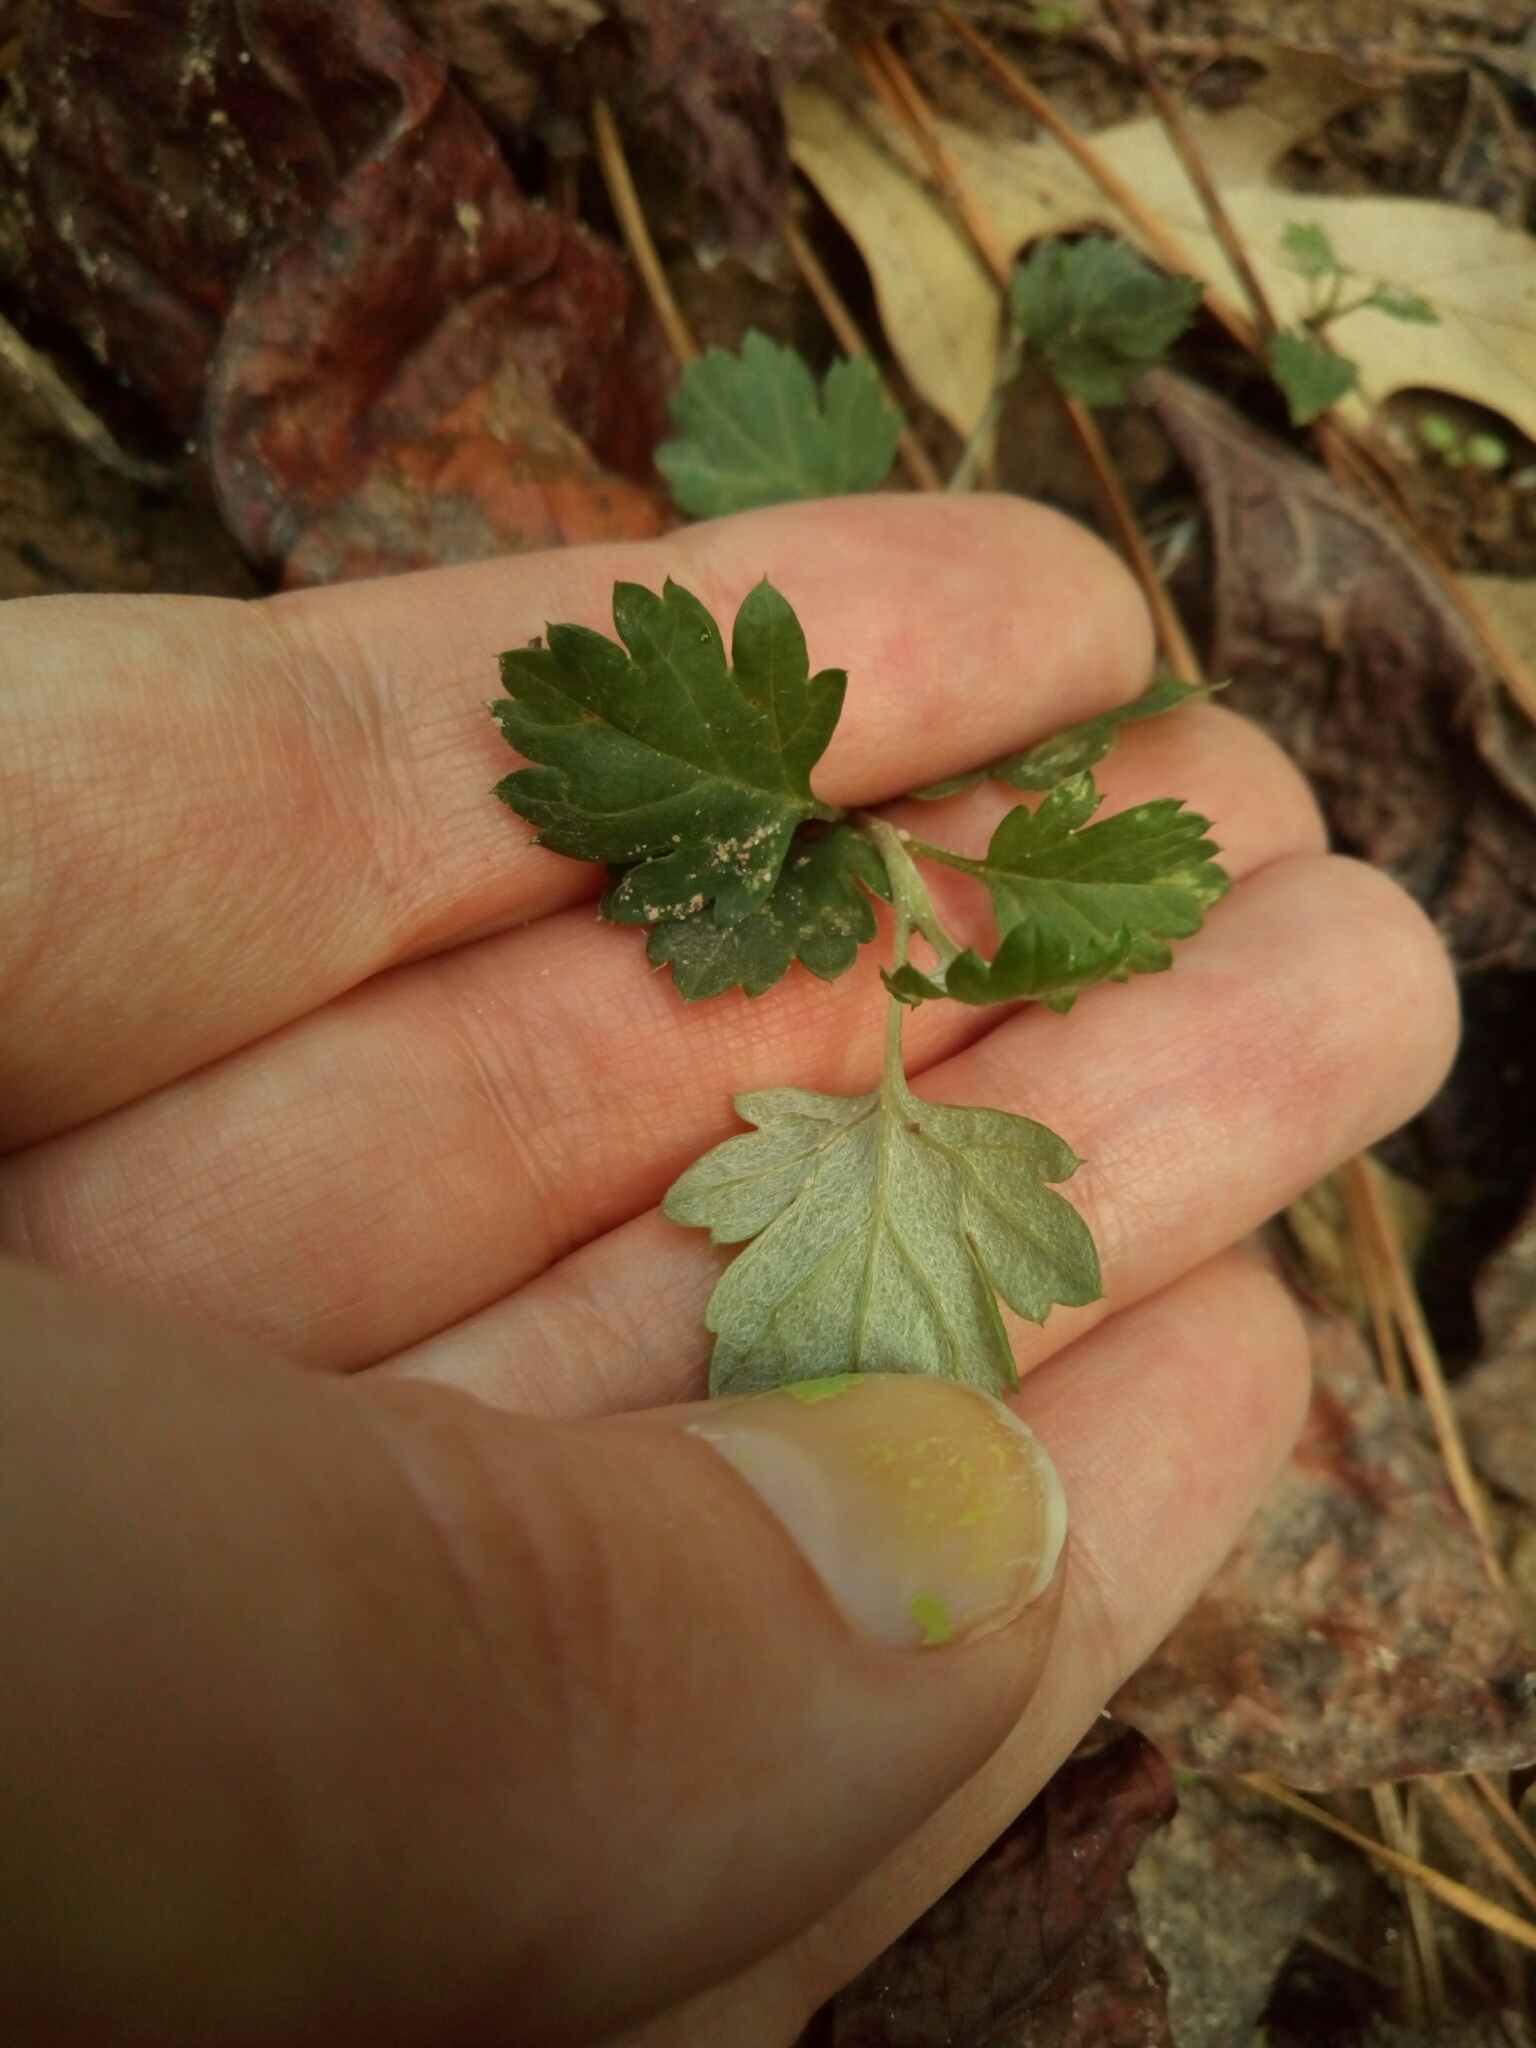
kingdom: Plantae
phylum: Tracheophyta
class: Magnoliopsida
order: Asterales
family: Asteraceae
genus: Artemisia
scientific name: Artemisia vulgaris
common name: Mugwort
